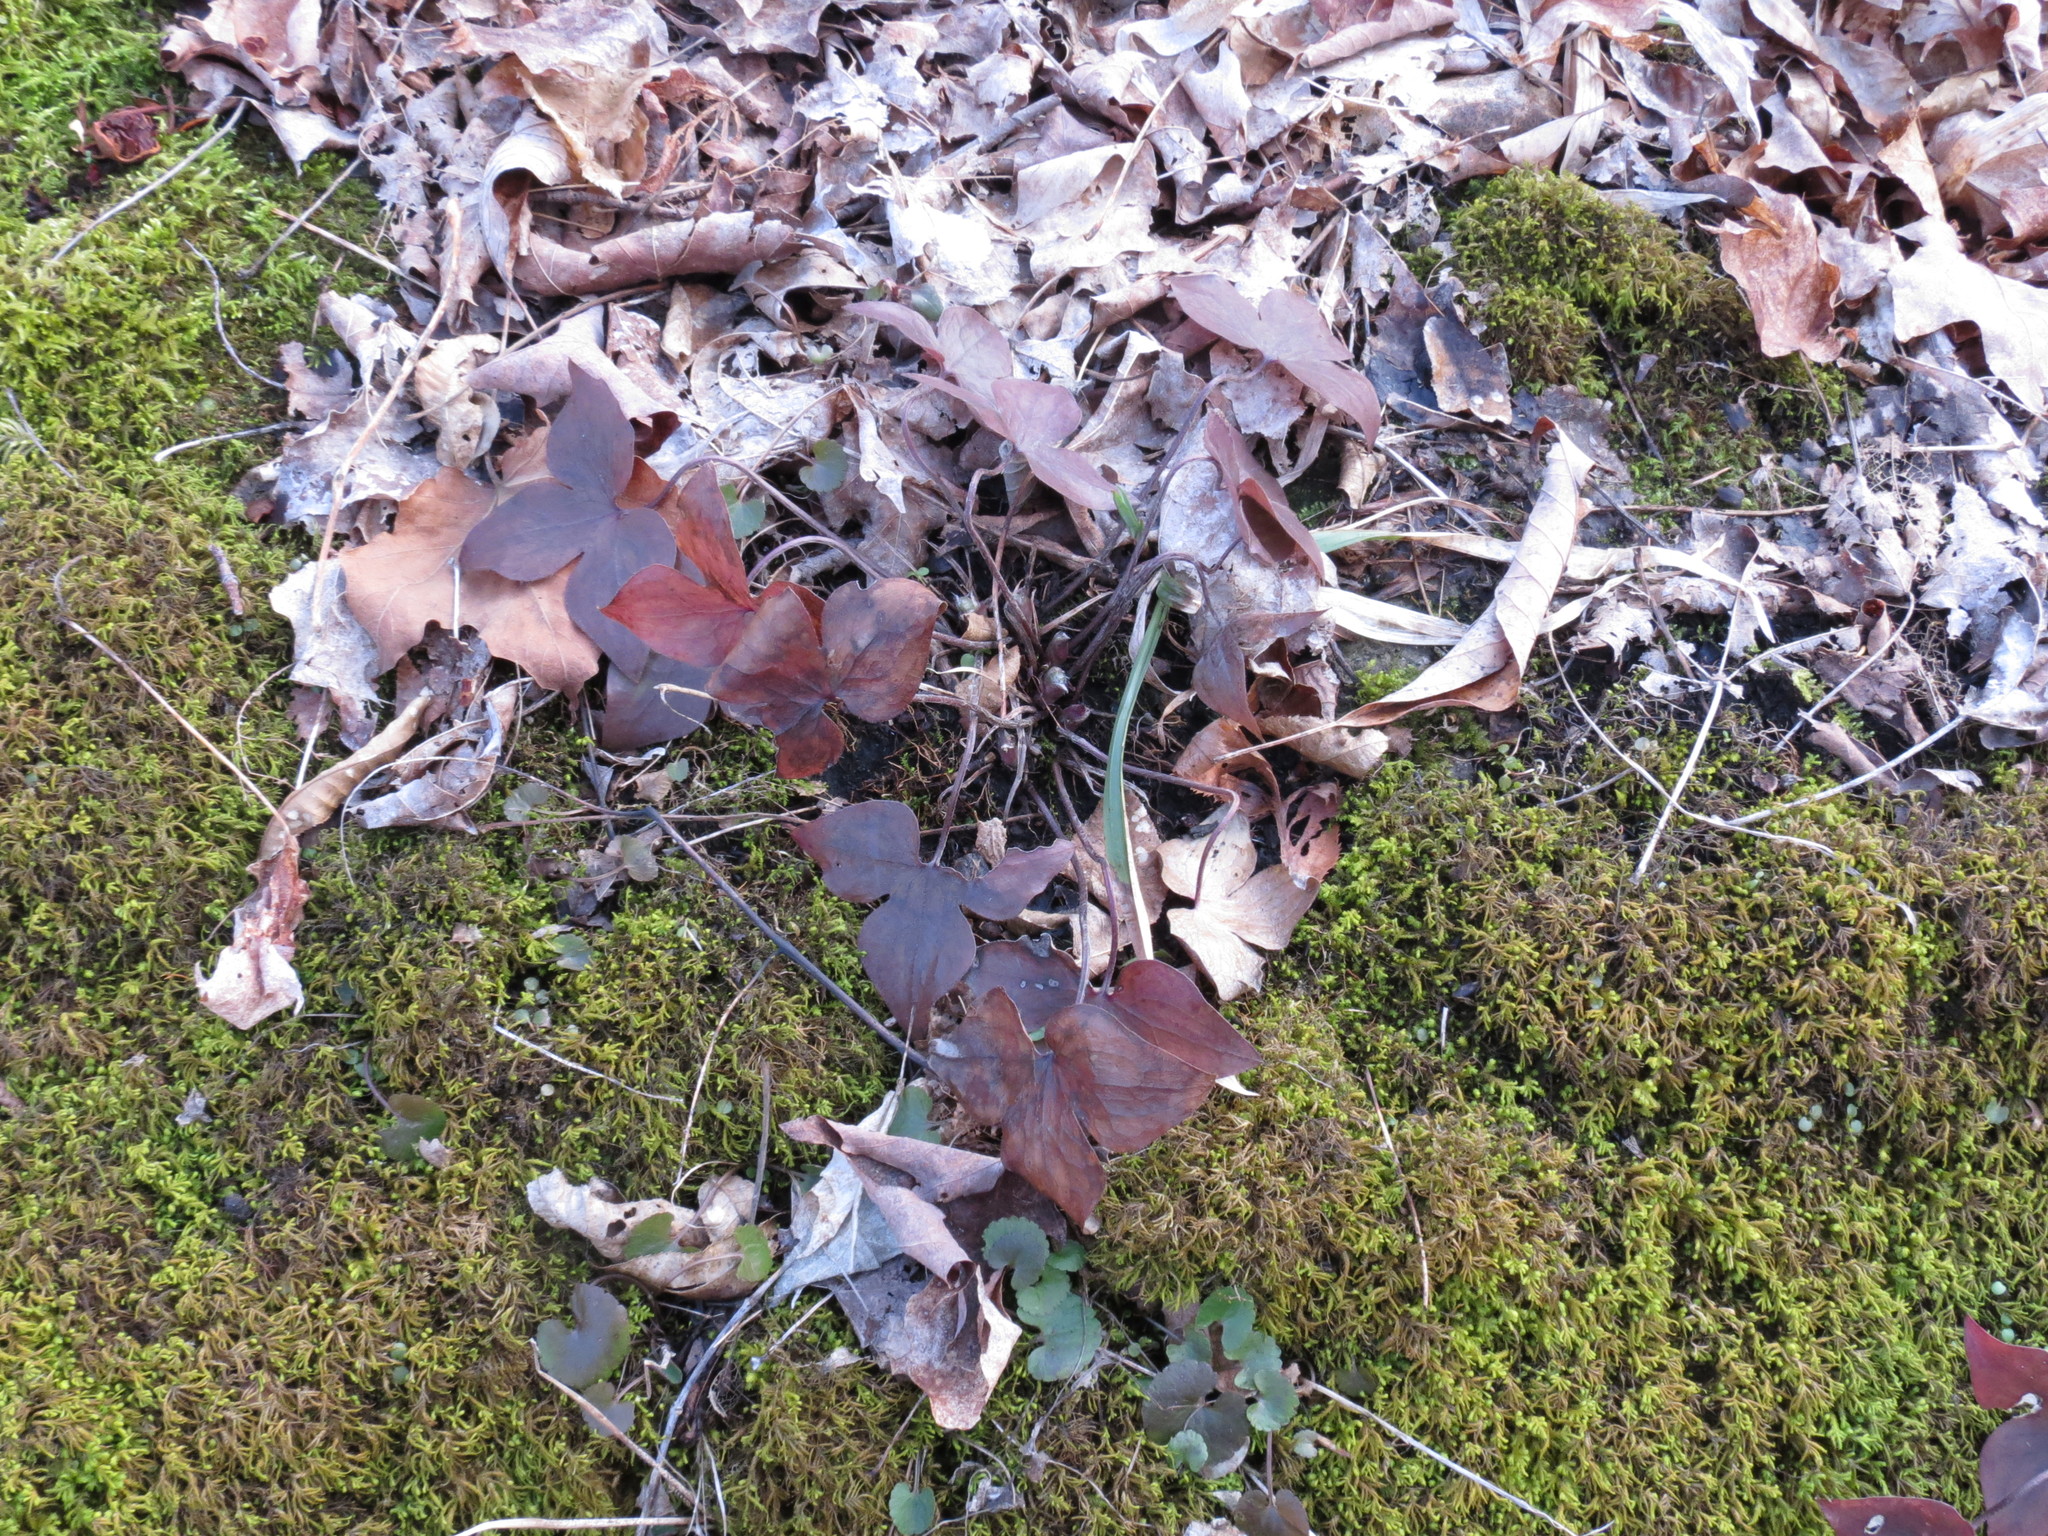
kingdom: Plantae
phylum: Tracheophyta
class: Magnoliopsida
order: Ranunculales
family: Ranunculaceae
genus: Hepatica
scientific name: Hepatica acutiloba
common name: Sharp-lobed hepatica
